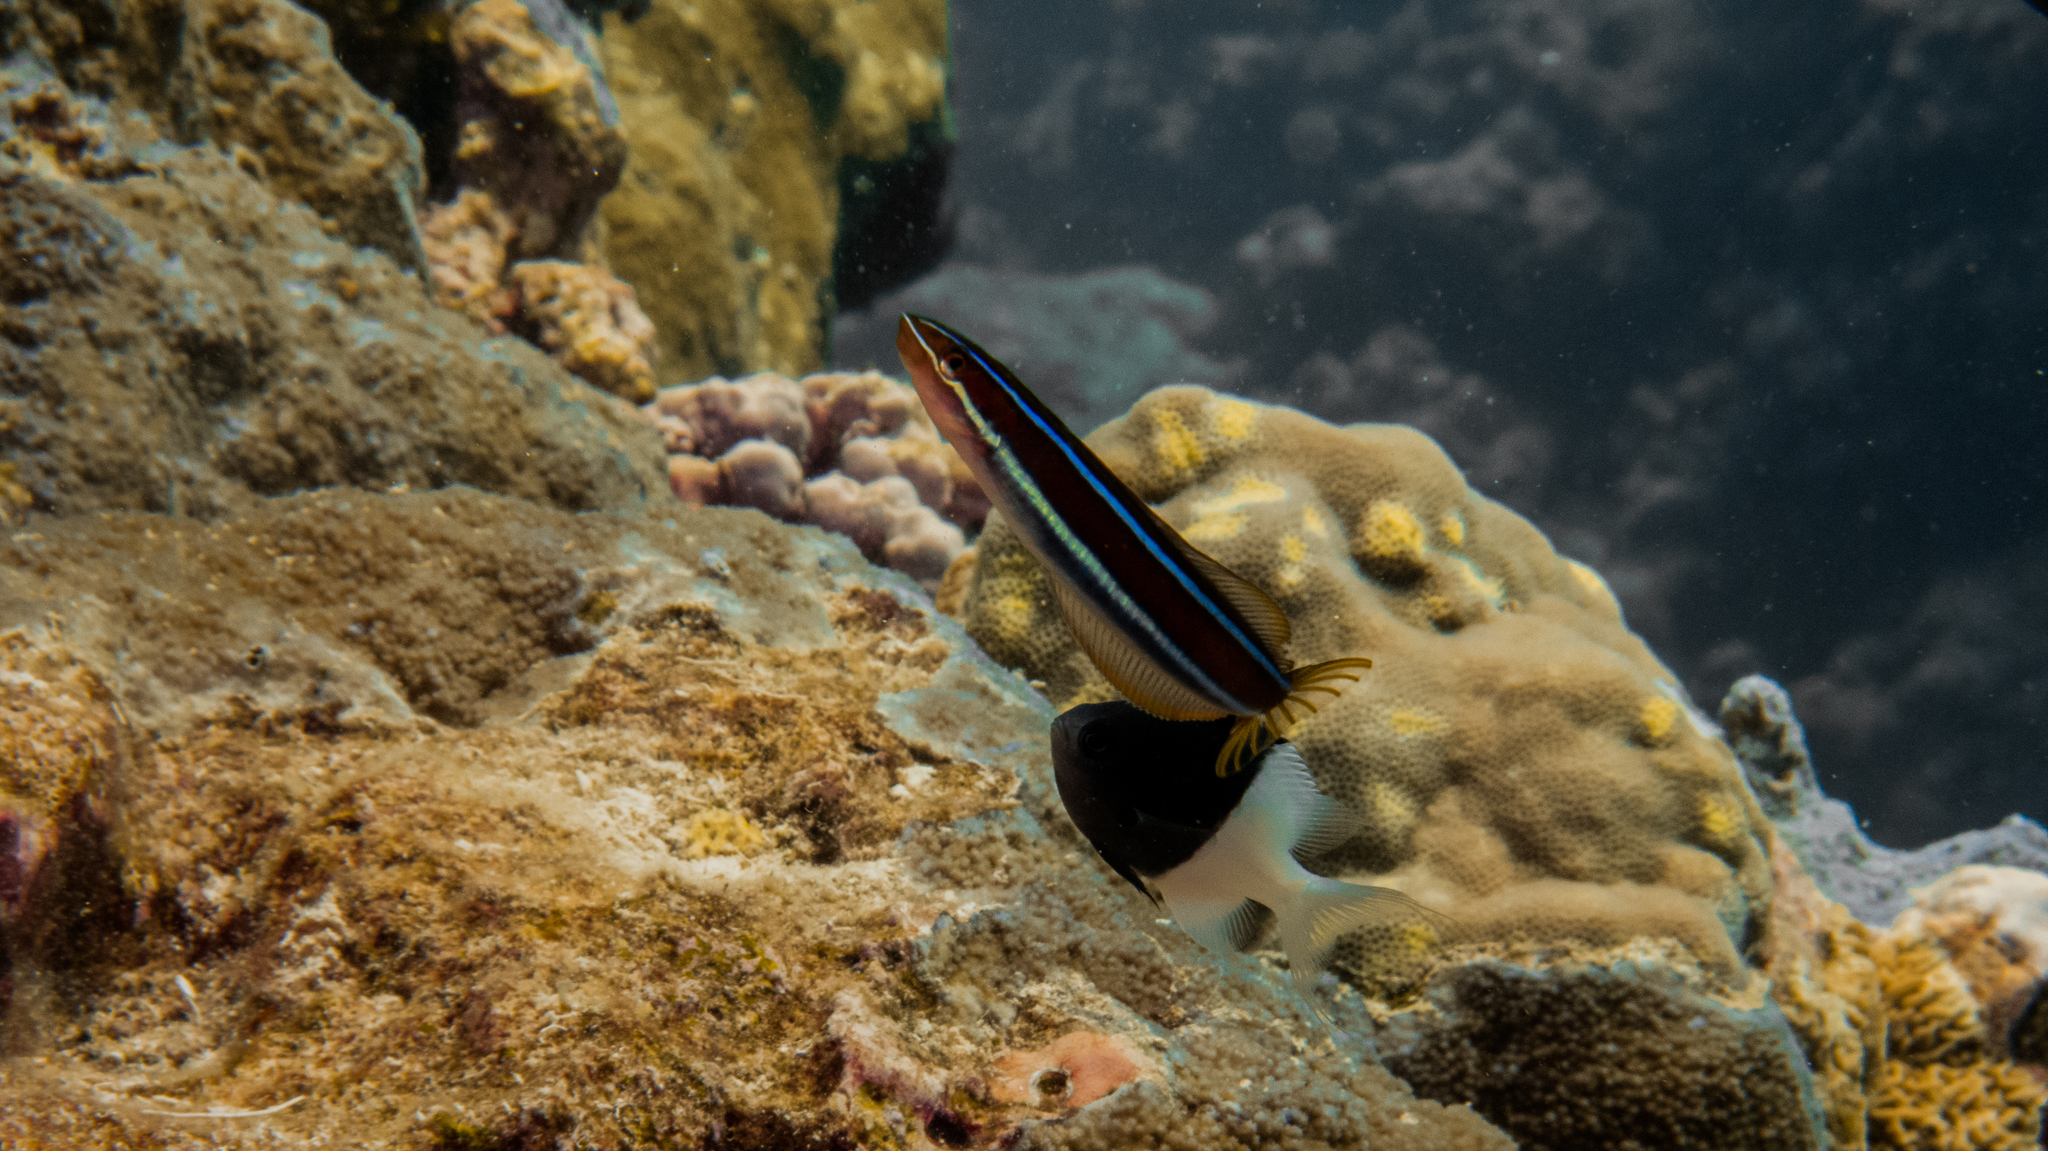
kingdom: Animalia
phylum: Chordata
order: Perciformes
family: Blenniidae
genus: Plagiotremus
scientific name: Plagiotremus rhinorhynchos
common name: Bluestriped fangblenny
